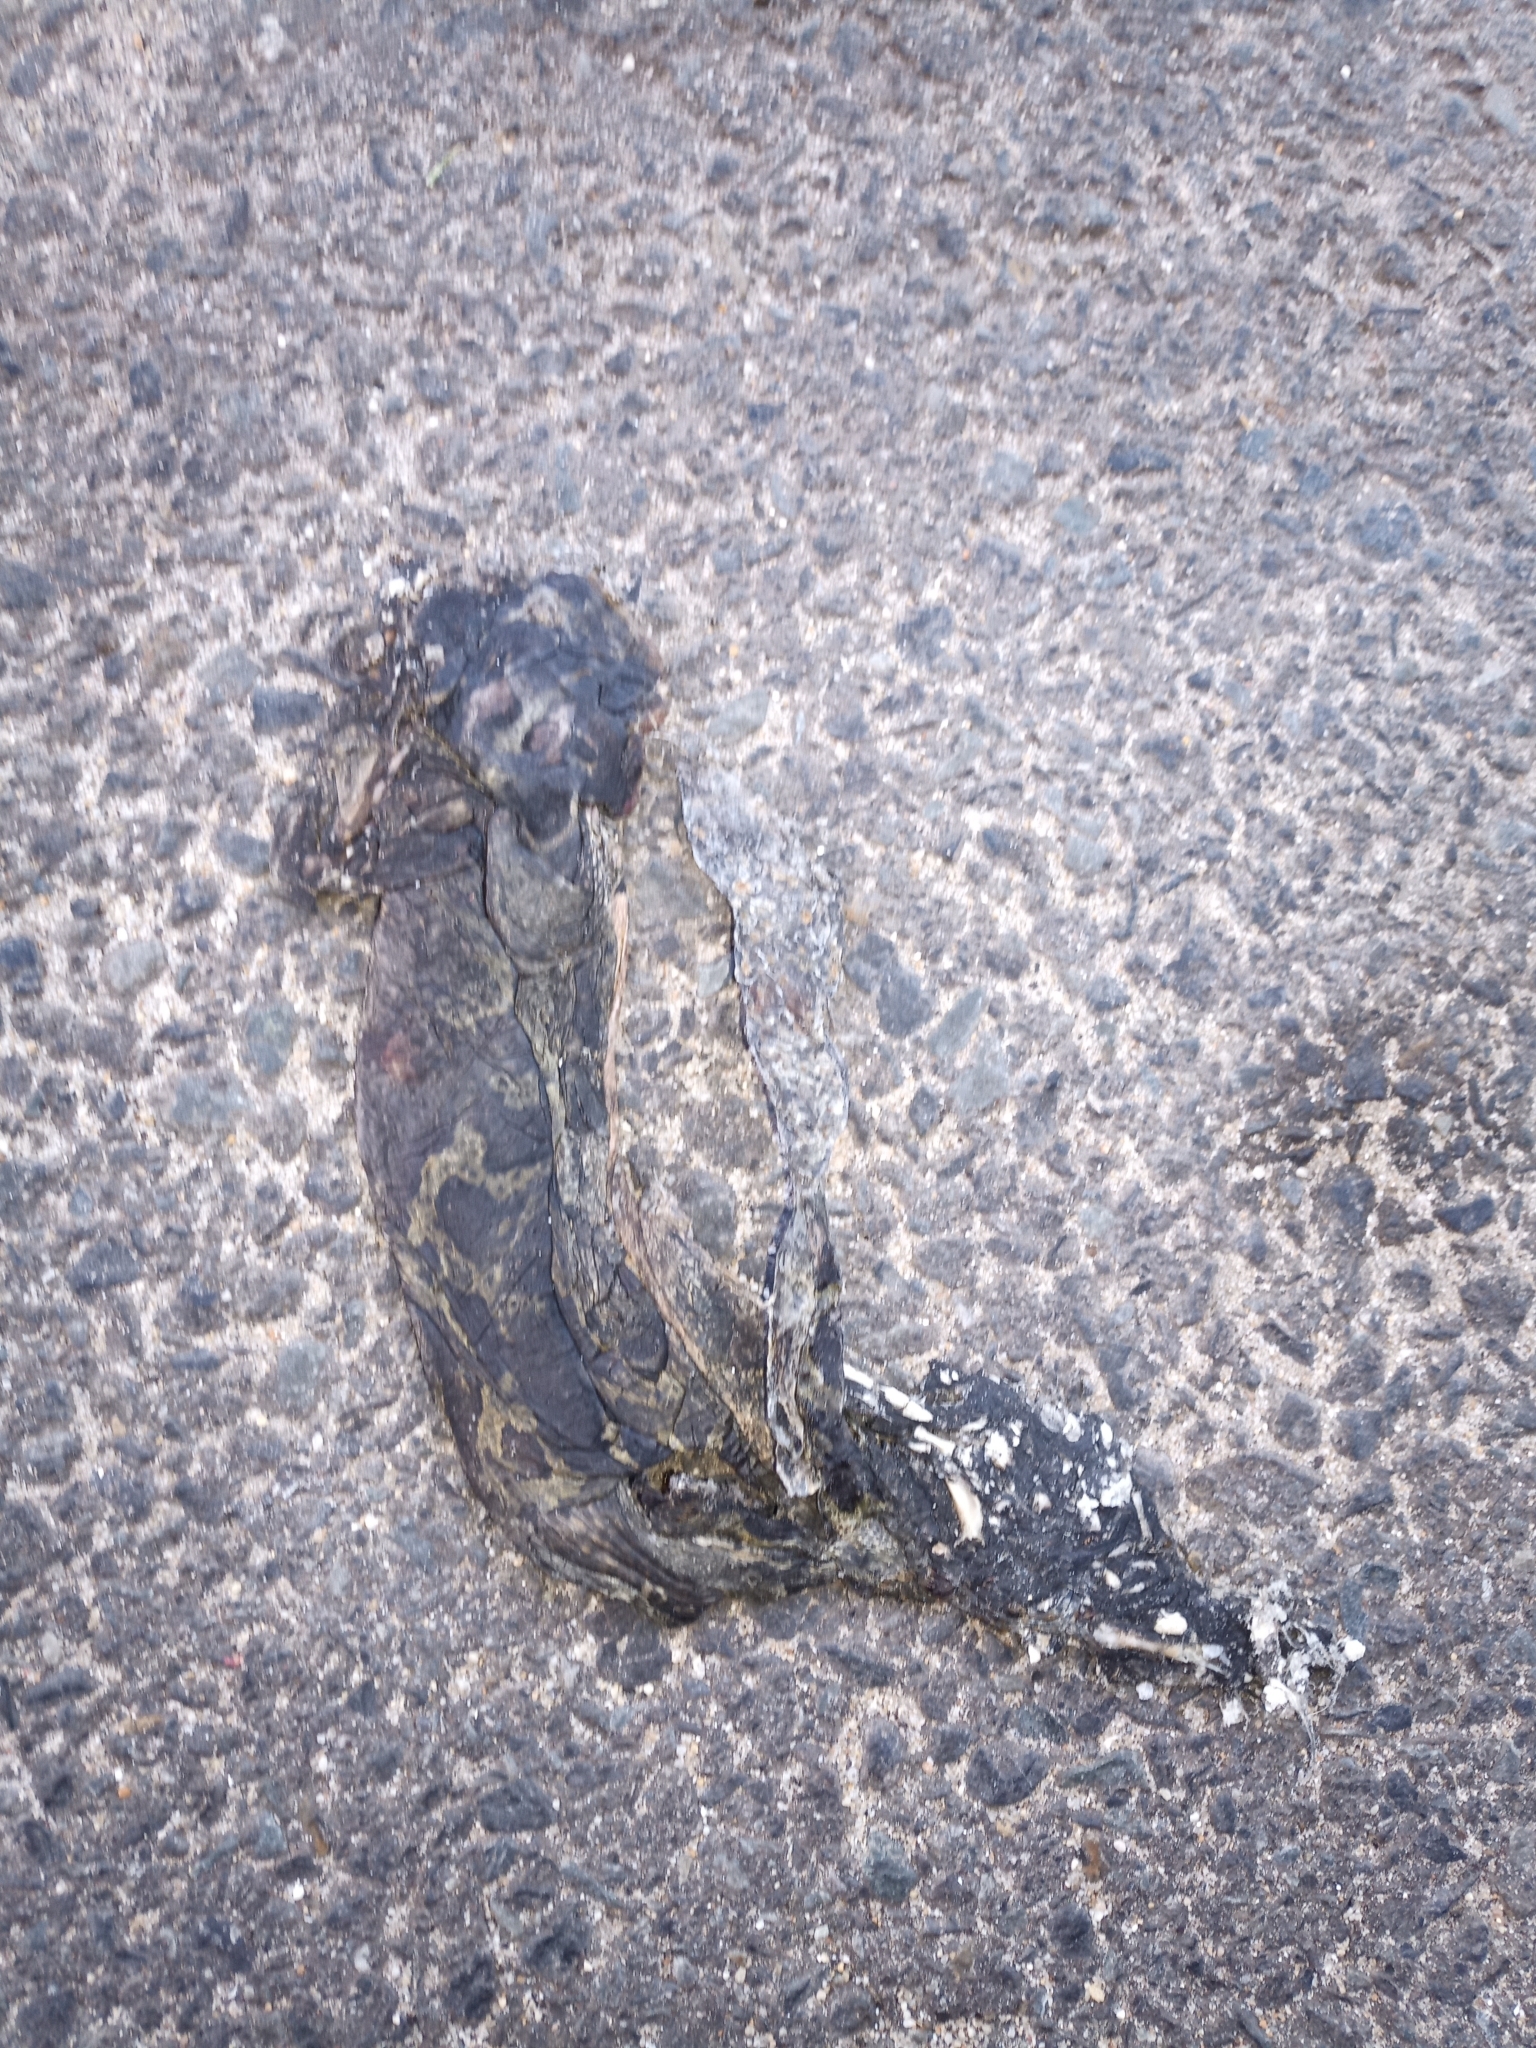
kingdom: Animalia
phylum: Chordata
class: Amphibia
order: Anura
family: Bufonidae
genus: Sclerophrys
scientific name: Sclerophrys pantherina
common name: Panther toad
